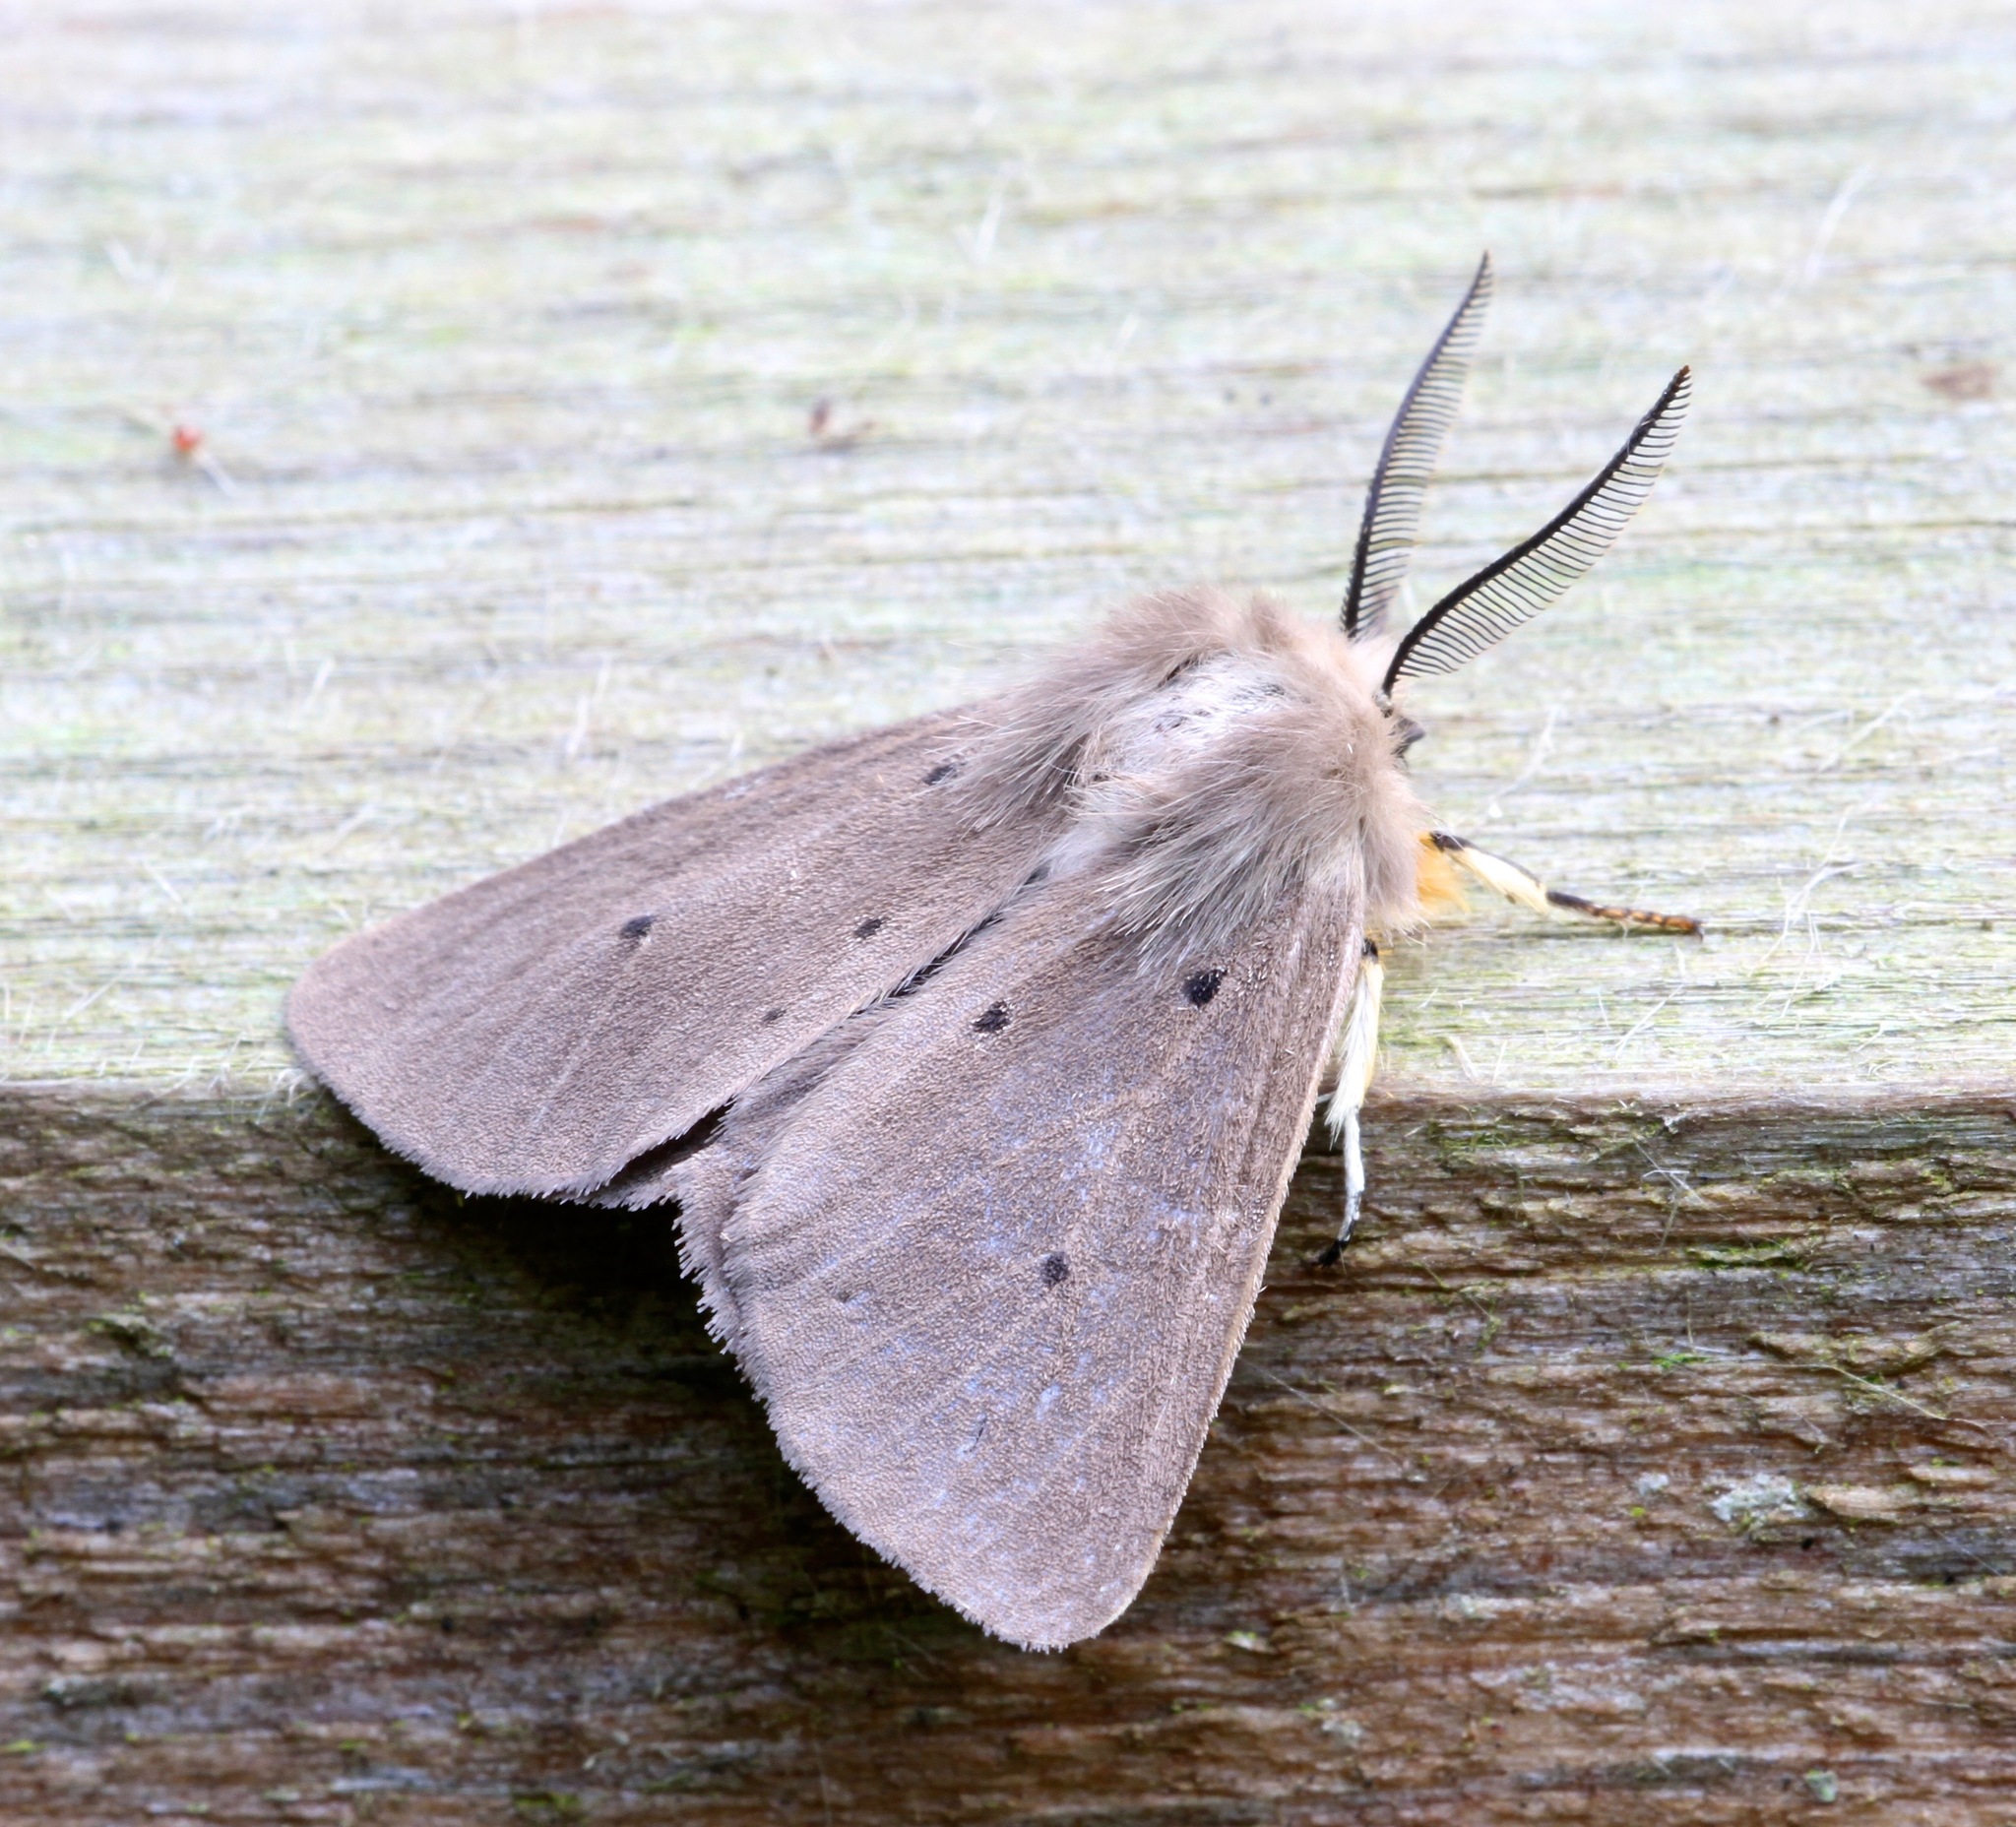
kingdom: Animalia
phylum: Arthropoda
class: Insecta
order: Lepidoptera
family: Erebidae
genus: Diaphora
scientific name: Diaphora mendica
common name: Muslin moth
